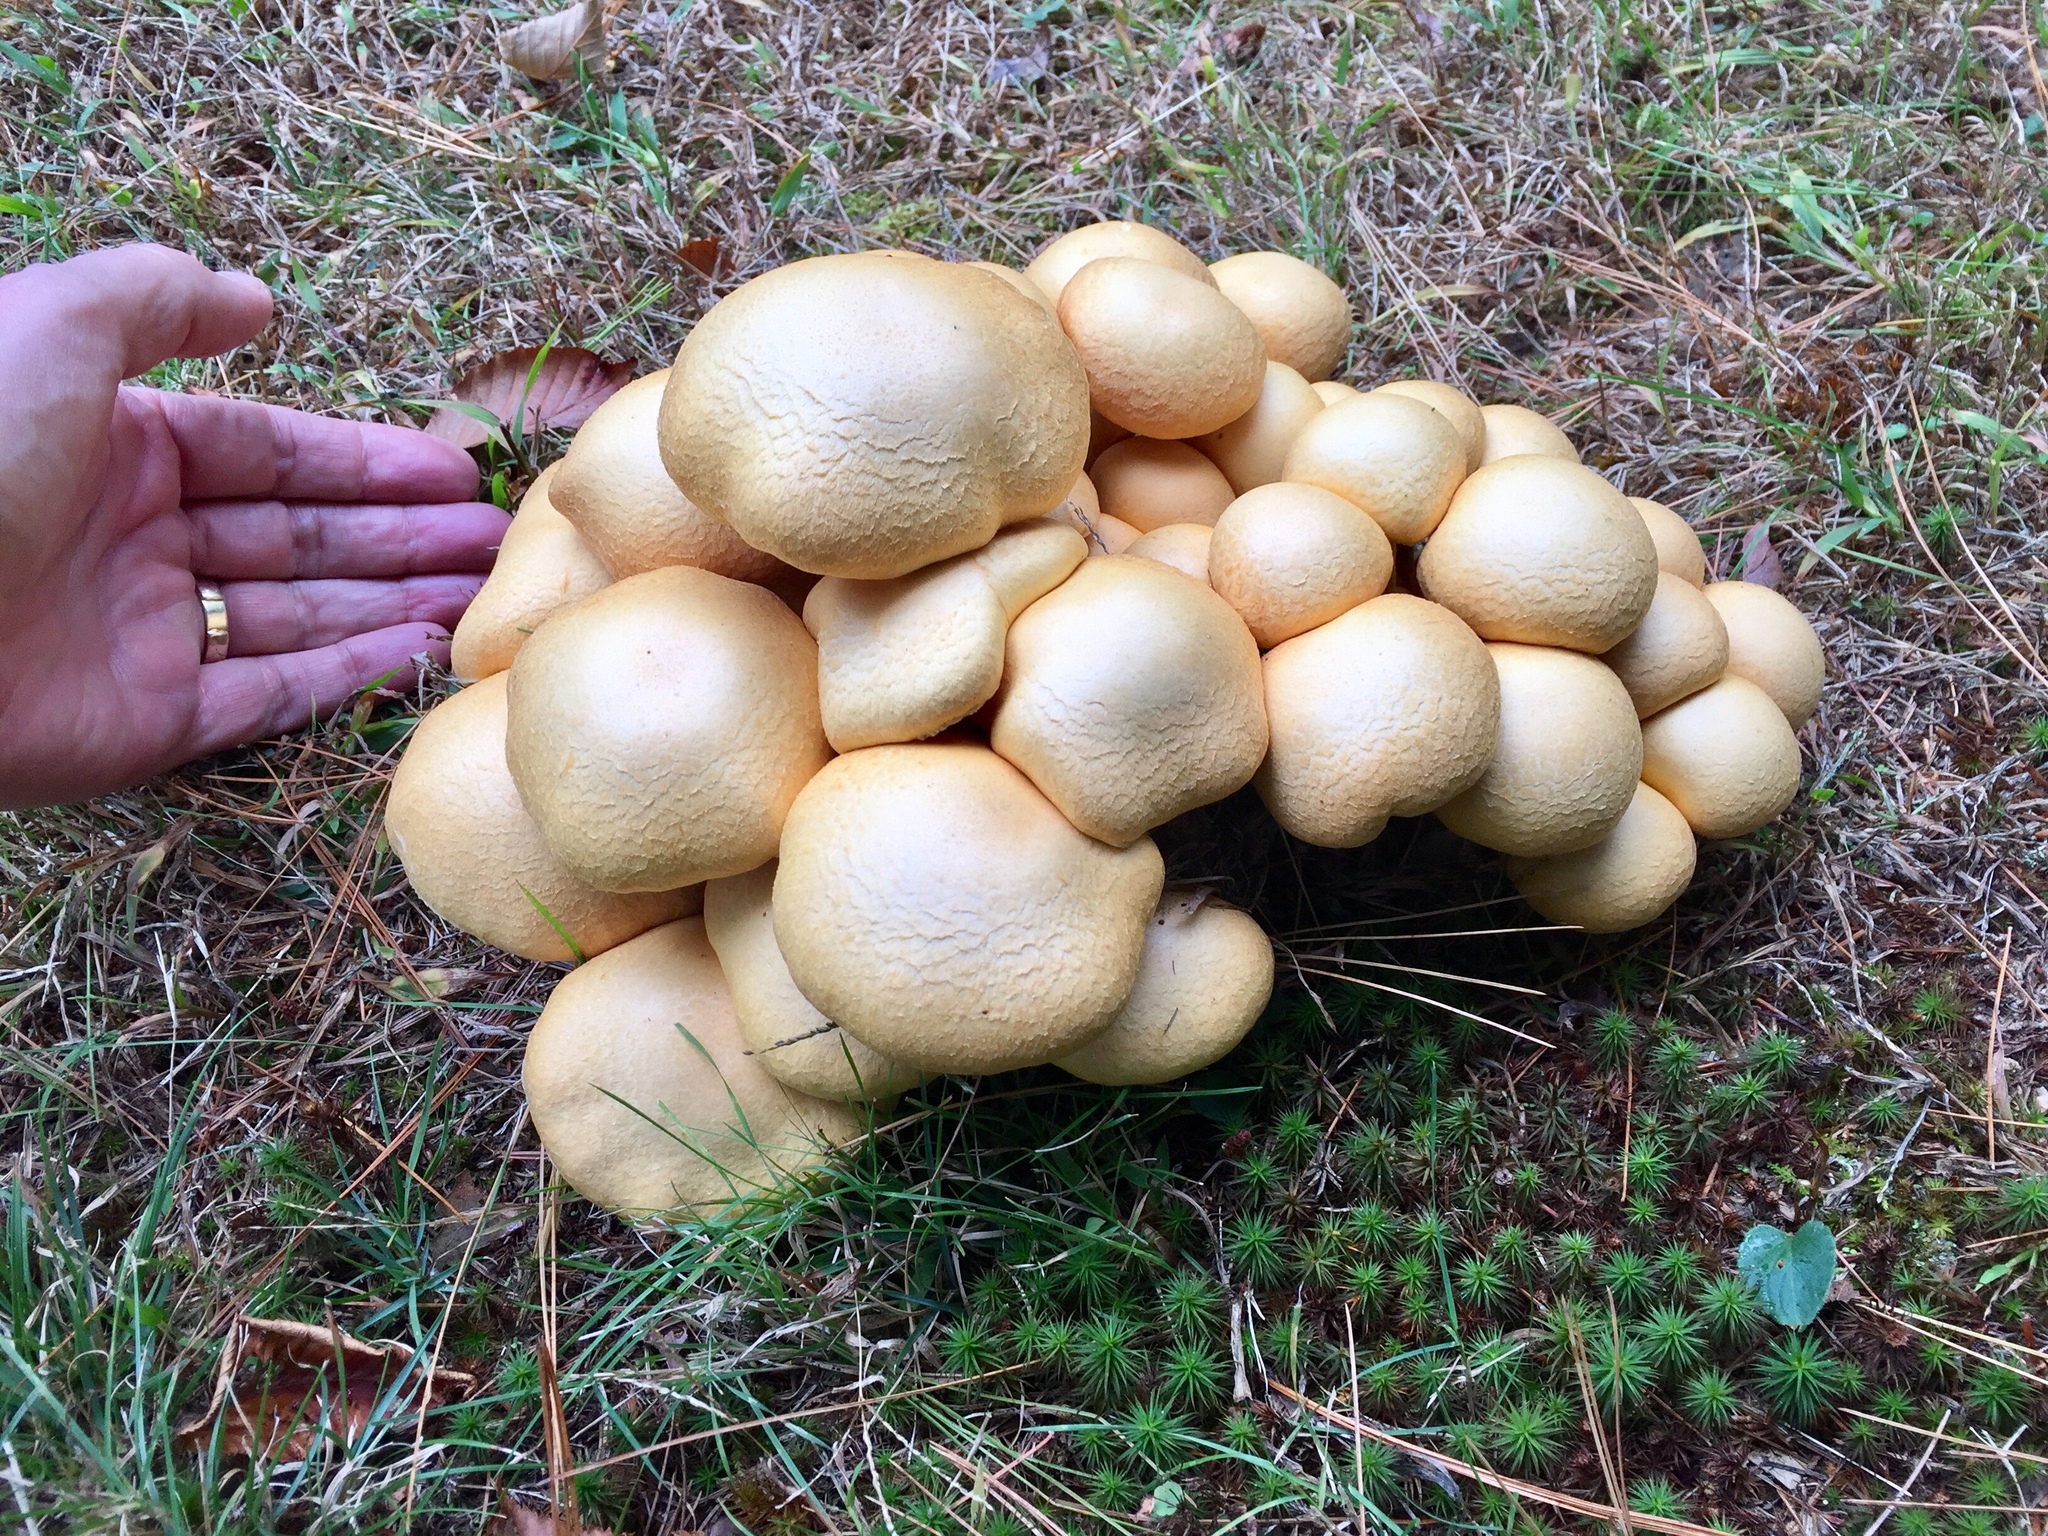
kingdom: Fungi
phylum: Basidiomycota
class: Agaricomycetes
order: Agaricales
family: Hymenogastraceae
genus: Gymnopilus
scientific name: Gymnopilus validipes
